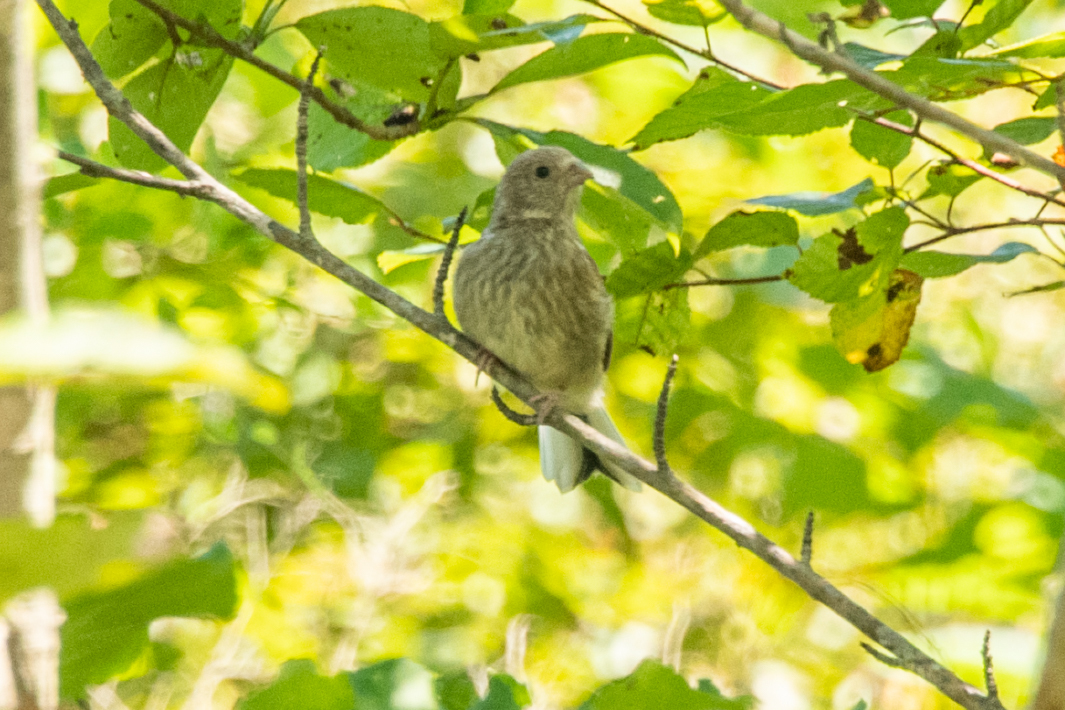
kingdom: Animalia
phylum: Chordata
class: Aves
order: Passeriformes
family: Fringillidae
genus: Carpodacus
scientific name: Carpodacus sibiricus
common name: Long-tailed rosefinch
